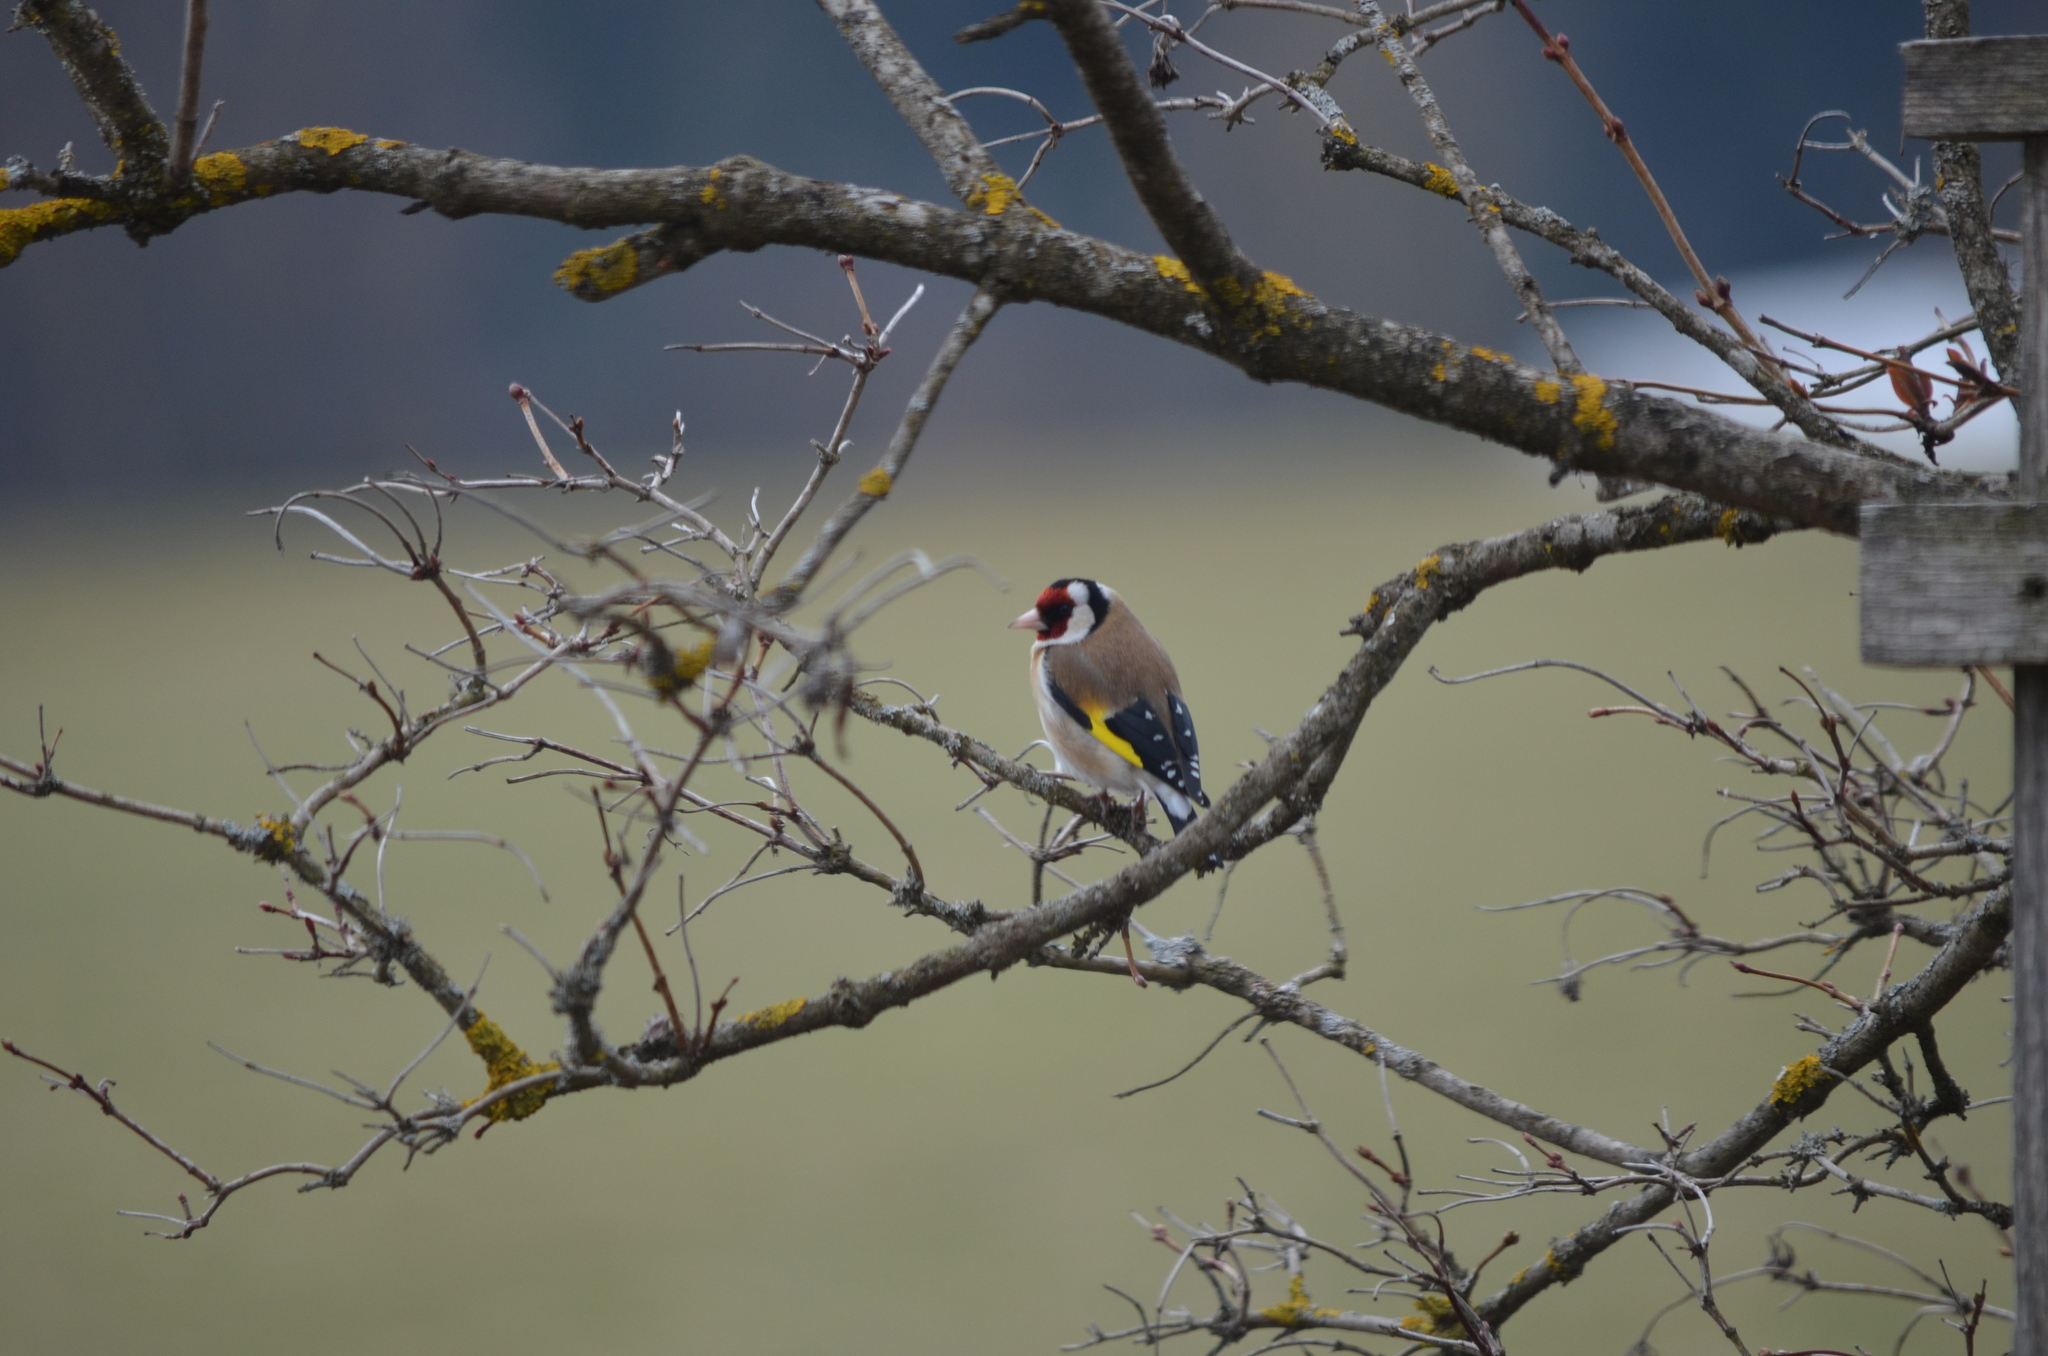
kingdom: Animalia
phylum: Chordata
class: Aves
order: Passeriformes
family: Fringillidae
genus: Carduelis
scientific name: Carduelis carduelis
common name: European goldfinch
